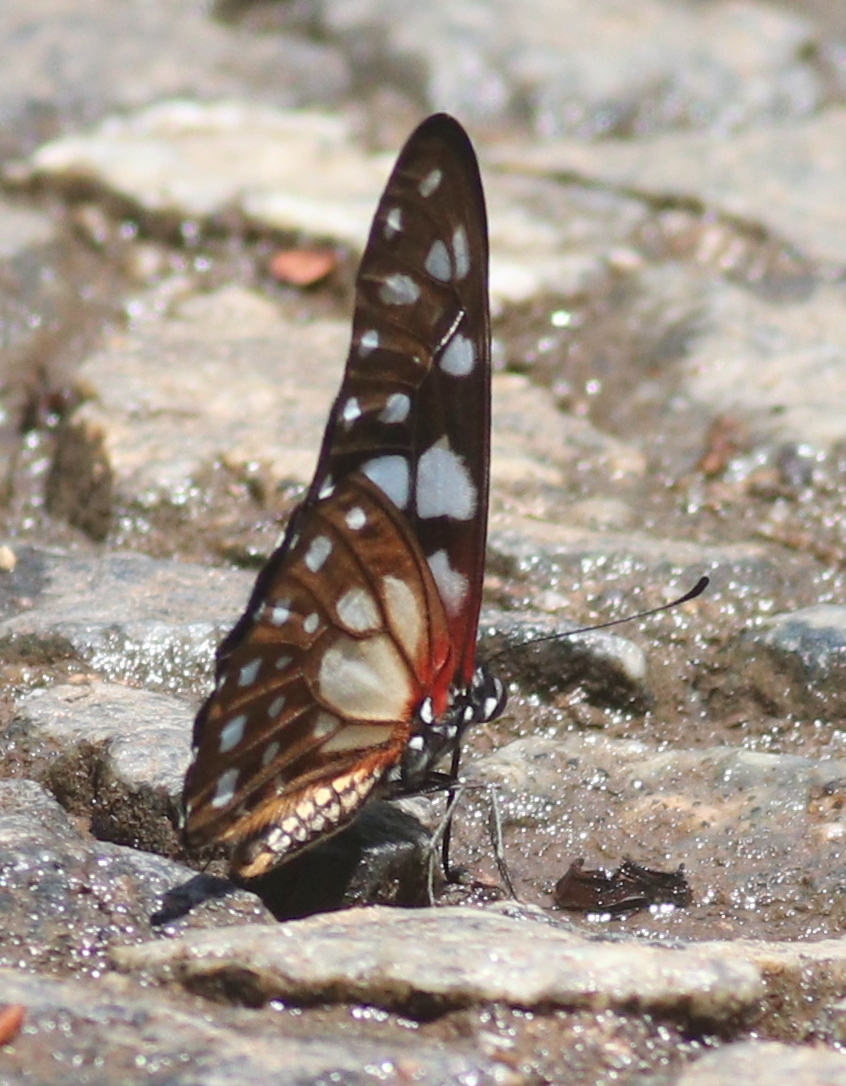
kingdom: Animalia
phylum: Arthropoda
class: Insecta
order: Lepidoptera
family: Papilionidae
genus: Graphium
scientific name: Graphium leonidas
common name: Common graphium
